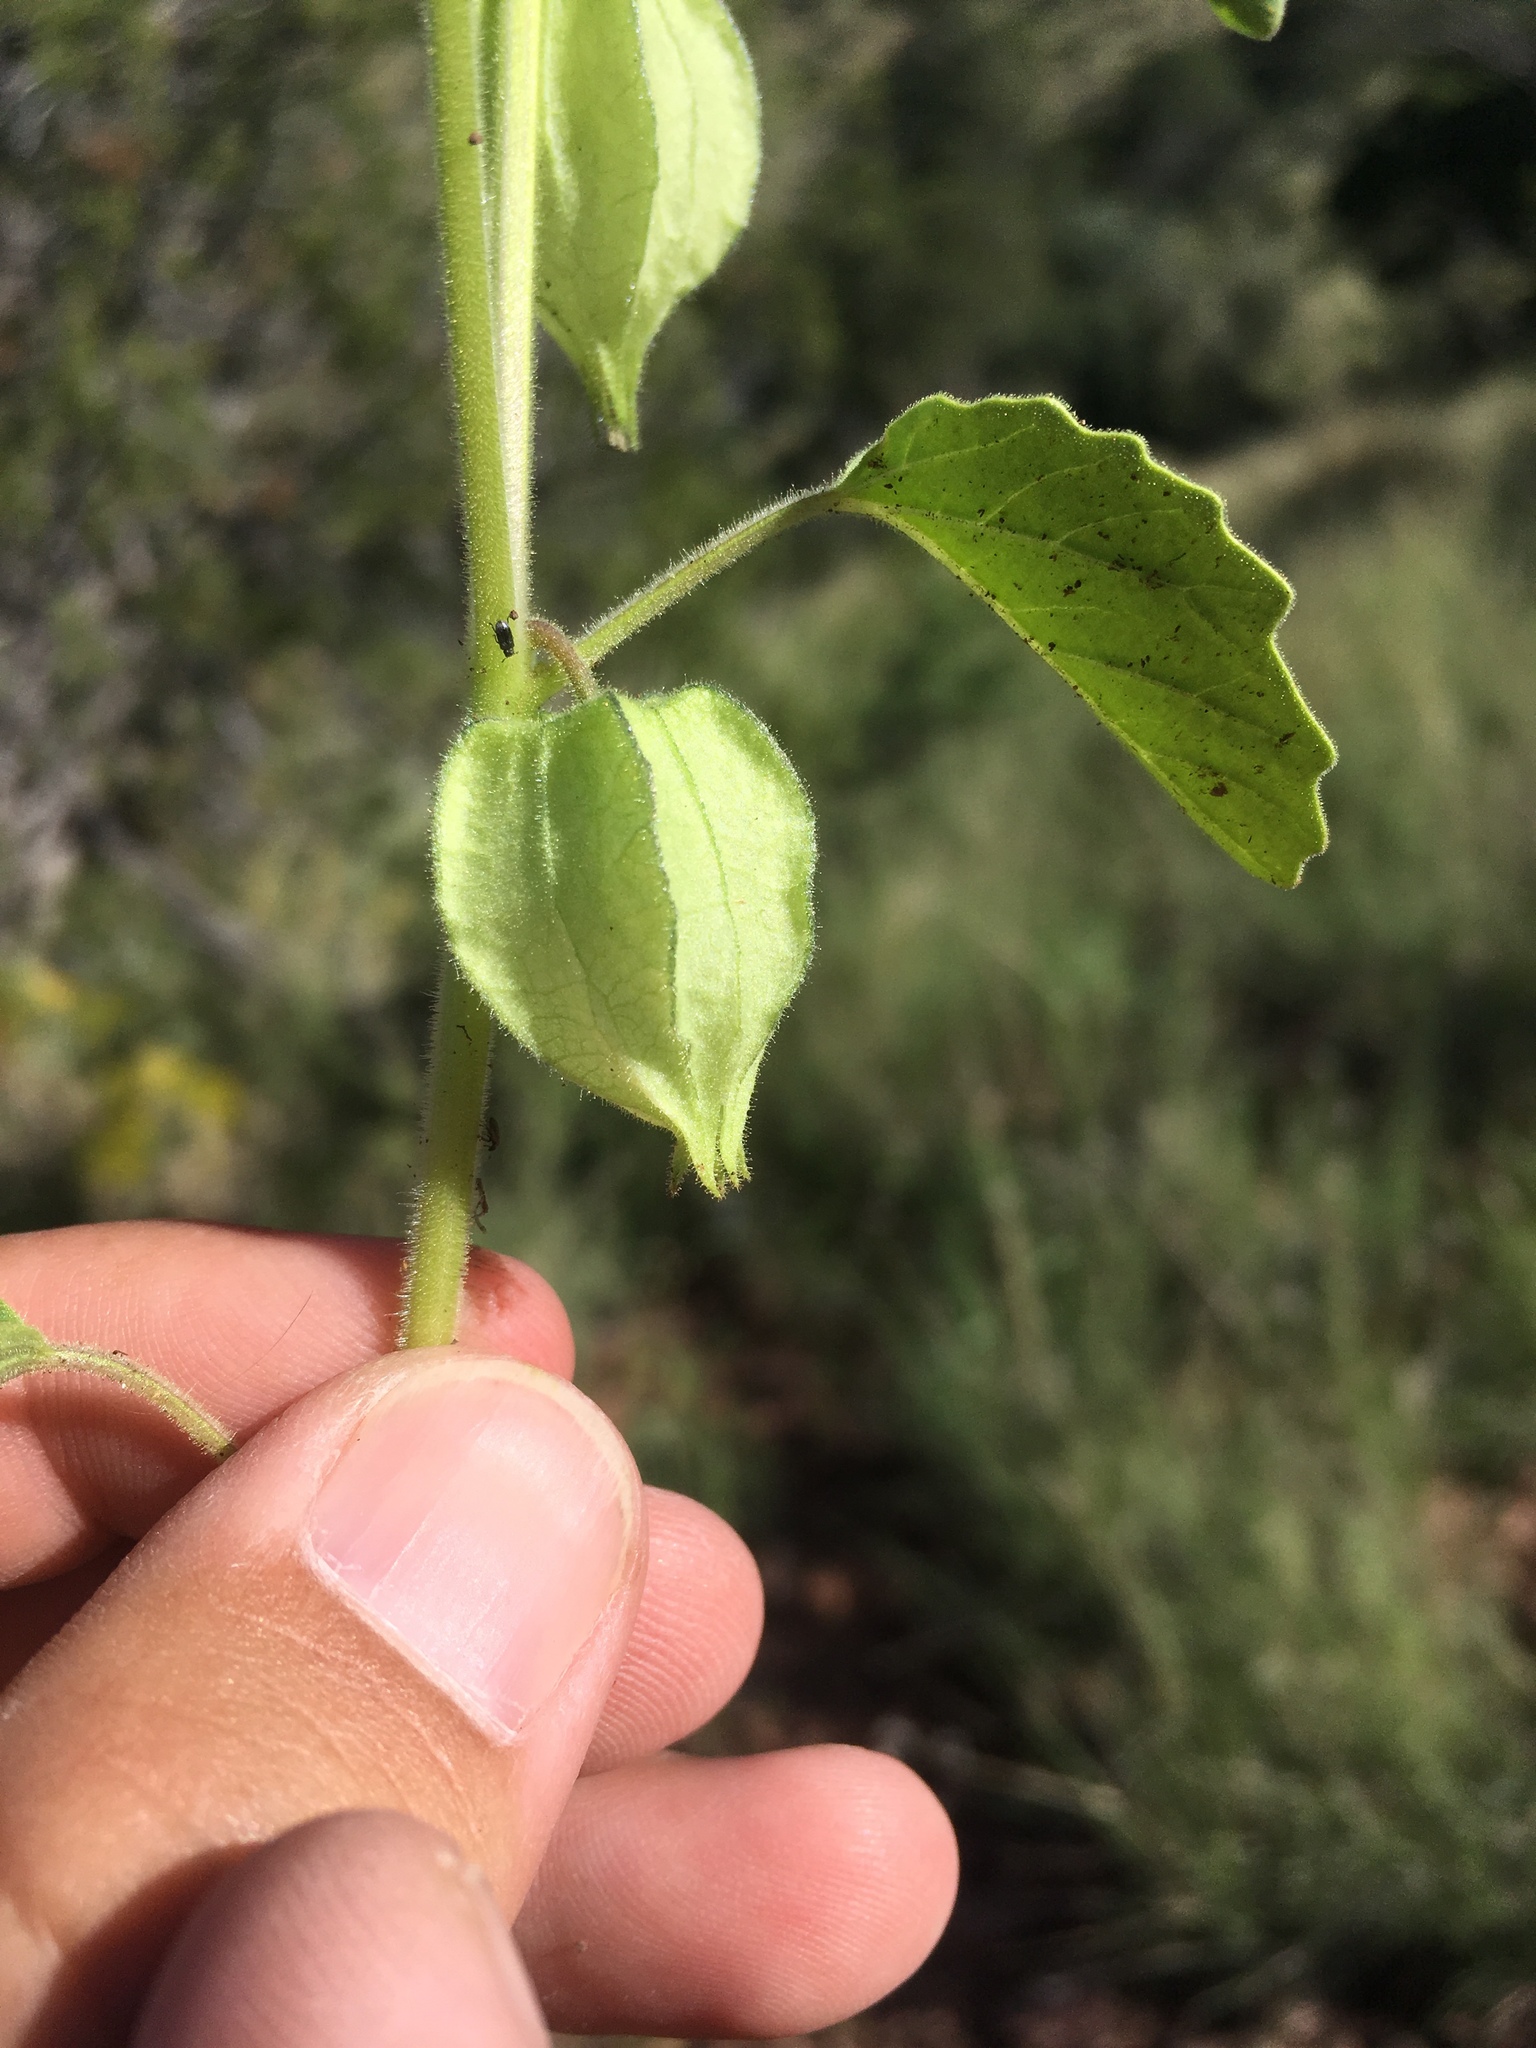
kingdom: Plantae
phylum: Tracheophyta
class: Magnoliopsida
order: Solanales
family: Solanaceae
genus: Physalis
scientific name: Physalis neomexicana
